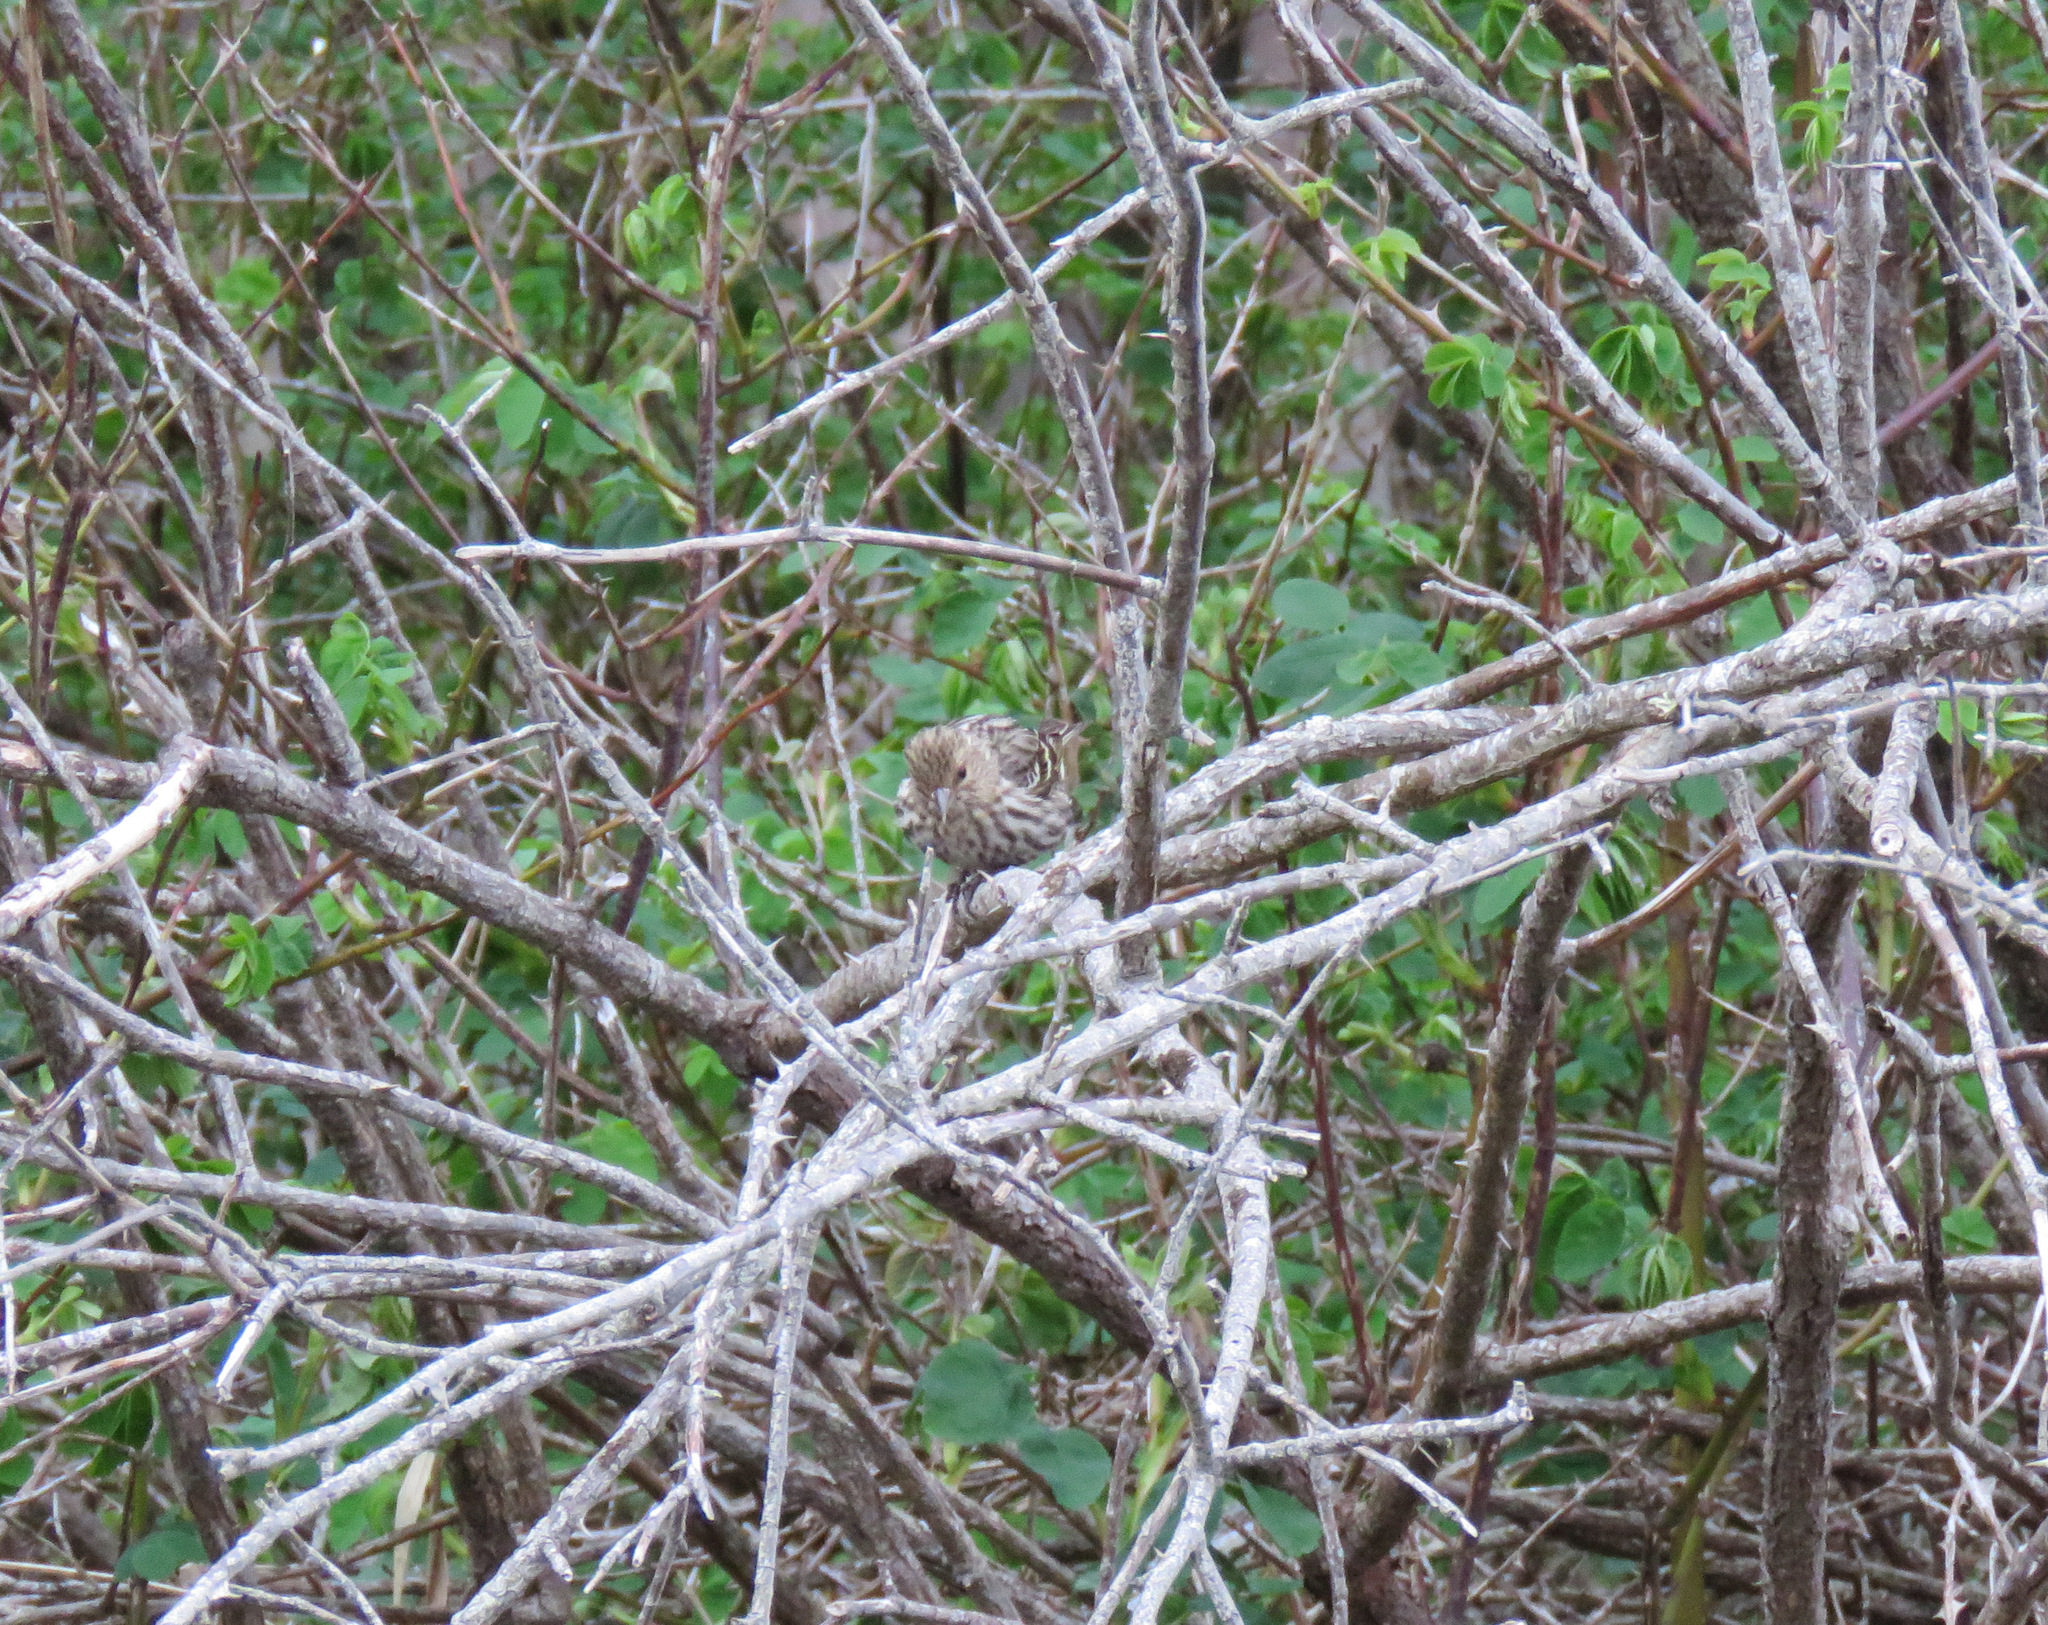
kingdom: Animalia
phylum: Chordata
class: Aves
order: Passeriformes
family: Fringillidae
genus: Spinus
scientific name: Spinus pinus
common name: Pine siskin
